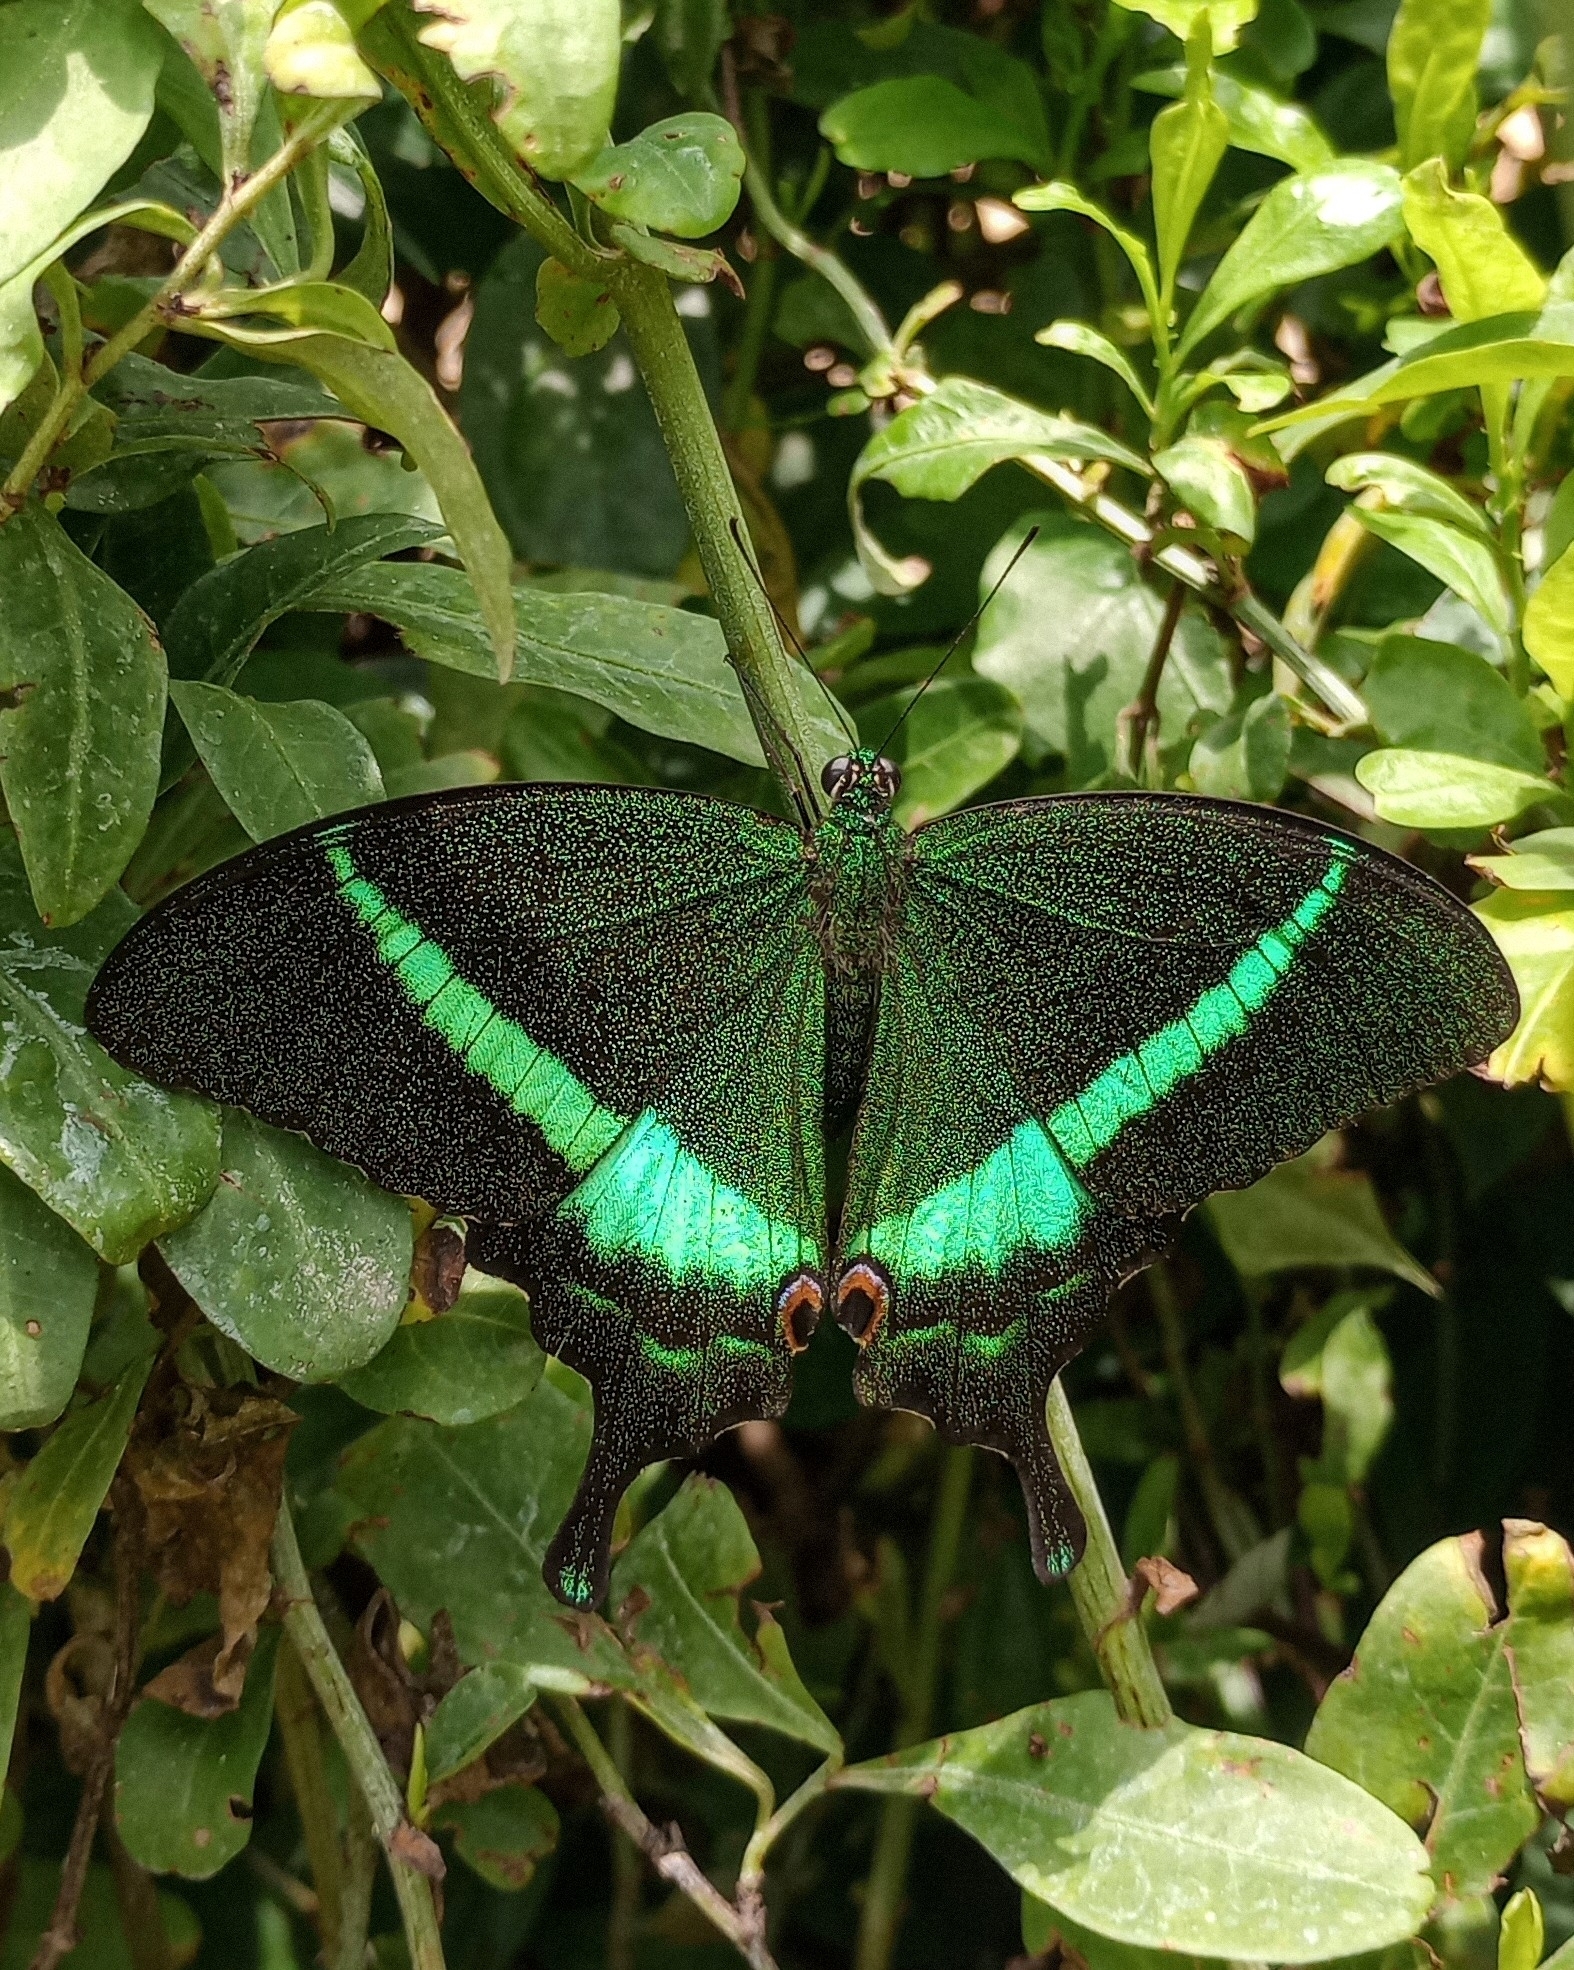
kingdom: Animalia
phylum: Arthropoda
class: Insecta
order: Lepidoptera
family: Papilionidae
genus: Papilio
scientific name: Papilio crino
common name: Common banded peacock
